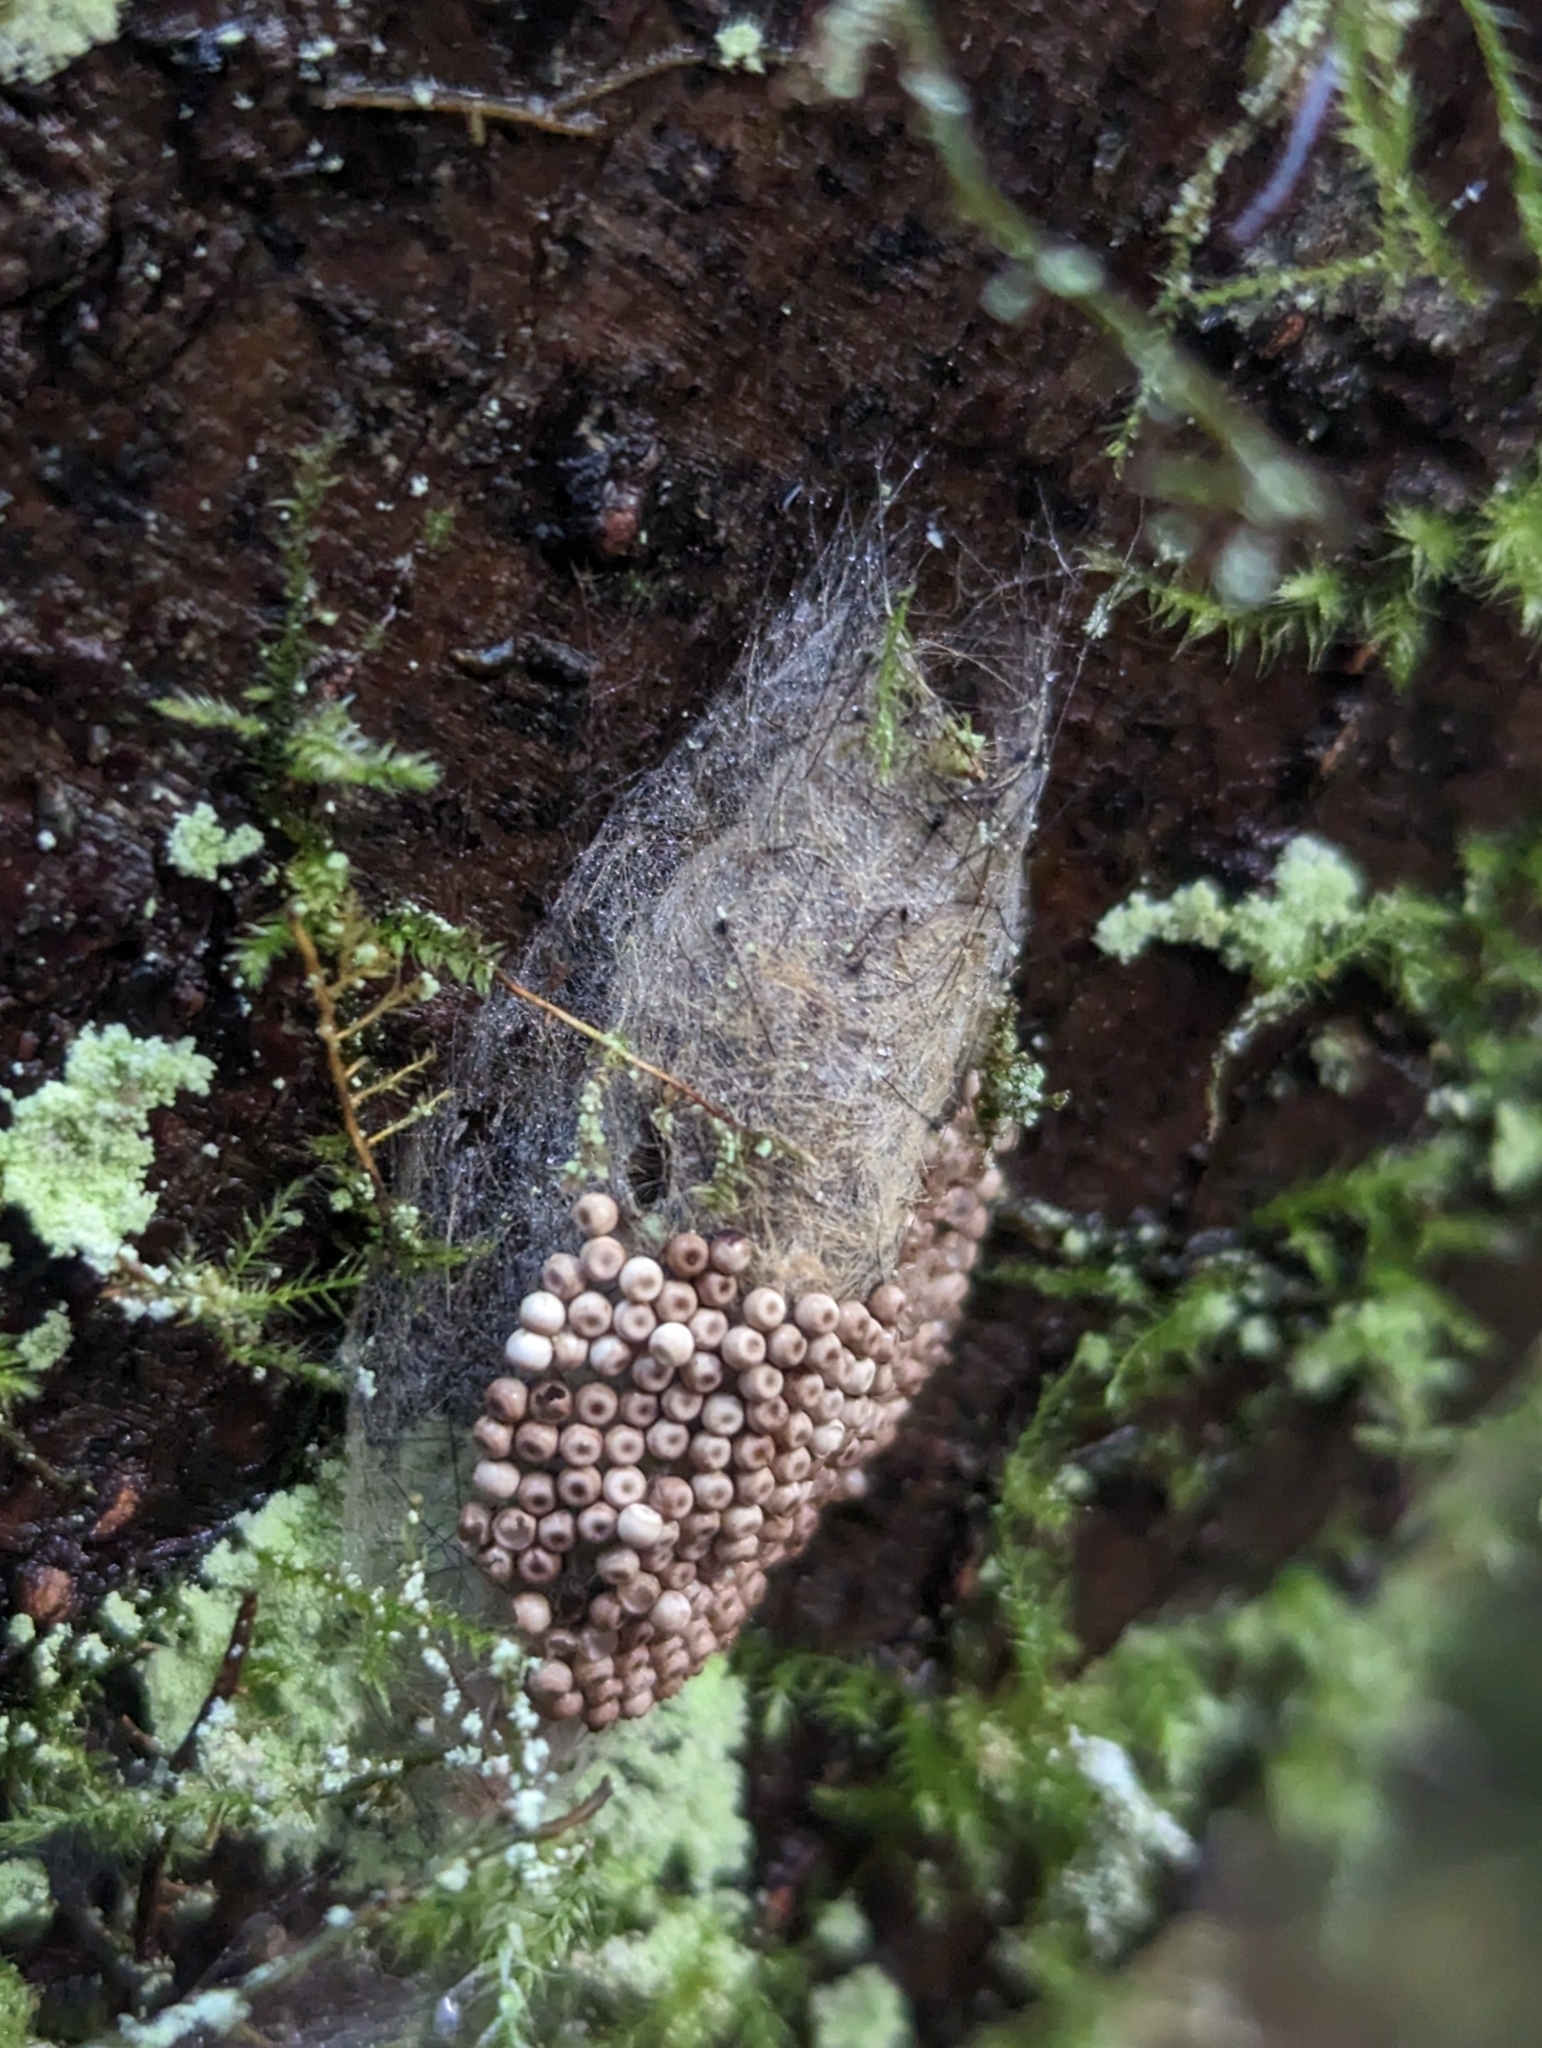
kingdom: Animalia
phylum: Arthropoda
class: Insecta
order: Lepidoptera
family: Erebidae
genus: Orgyia
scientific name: Orgyia antiqua
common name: Vapourer
